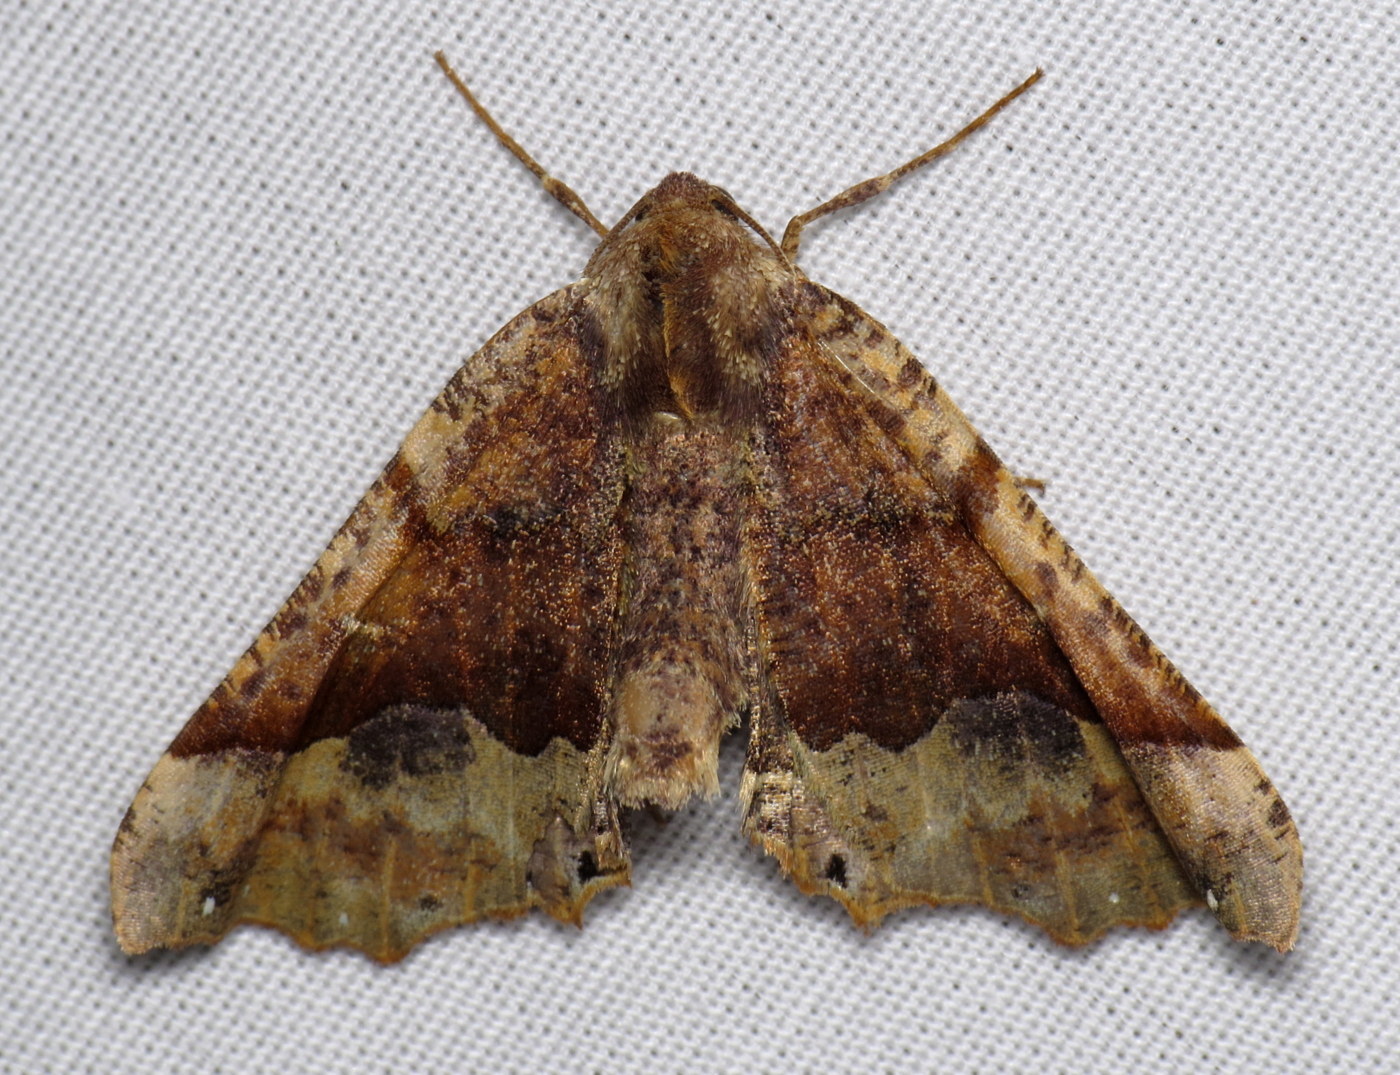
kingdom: Animalia
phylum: Arthropoda
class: Insecta
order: Lepidoptera
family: Geometridae
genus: Pero
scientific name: Pero morrisonaria
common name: Morrison's pero
